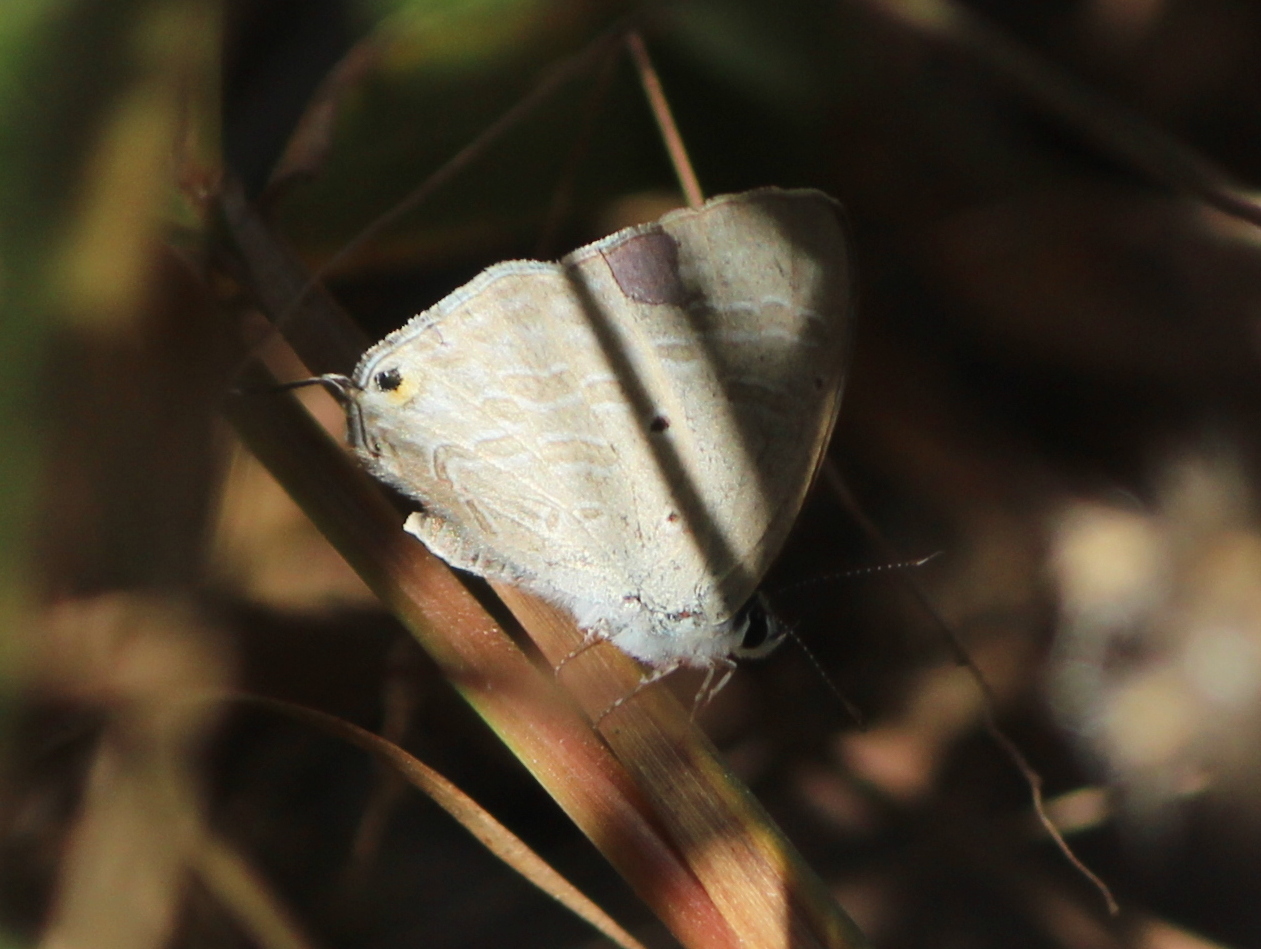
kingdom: Animalia
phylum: Arthropoda
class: Insecta
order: Lepidoptera
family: Lycaenidae
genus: Catochrysops
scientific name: Catochrysops strabo
